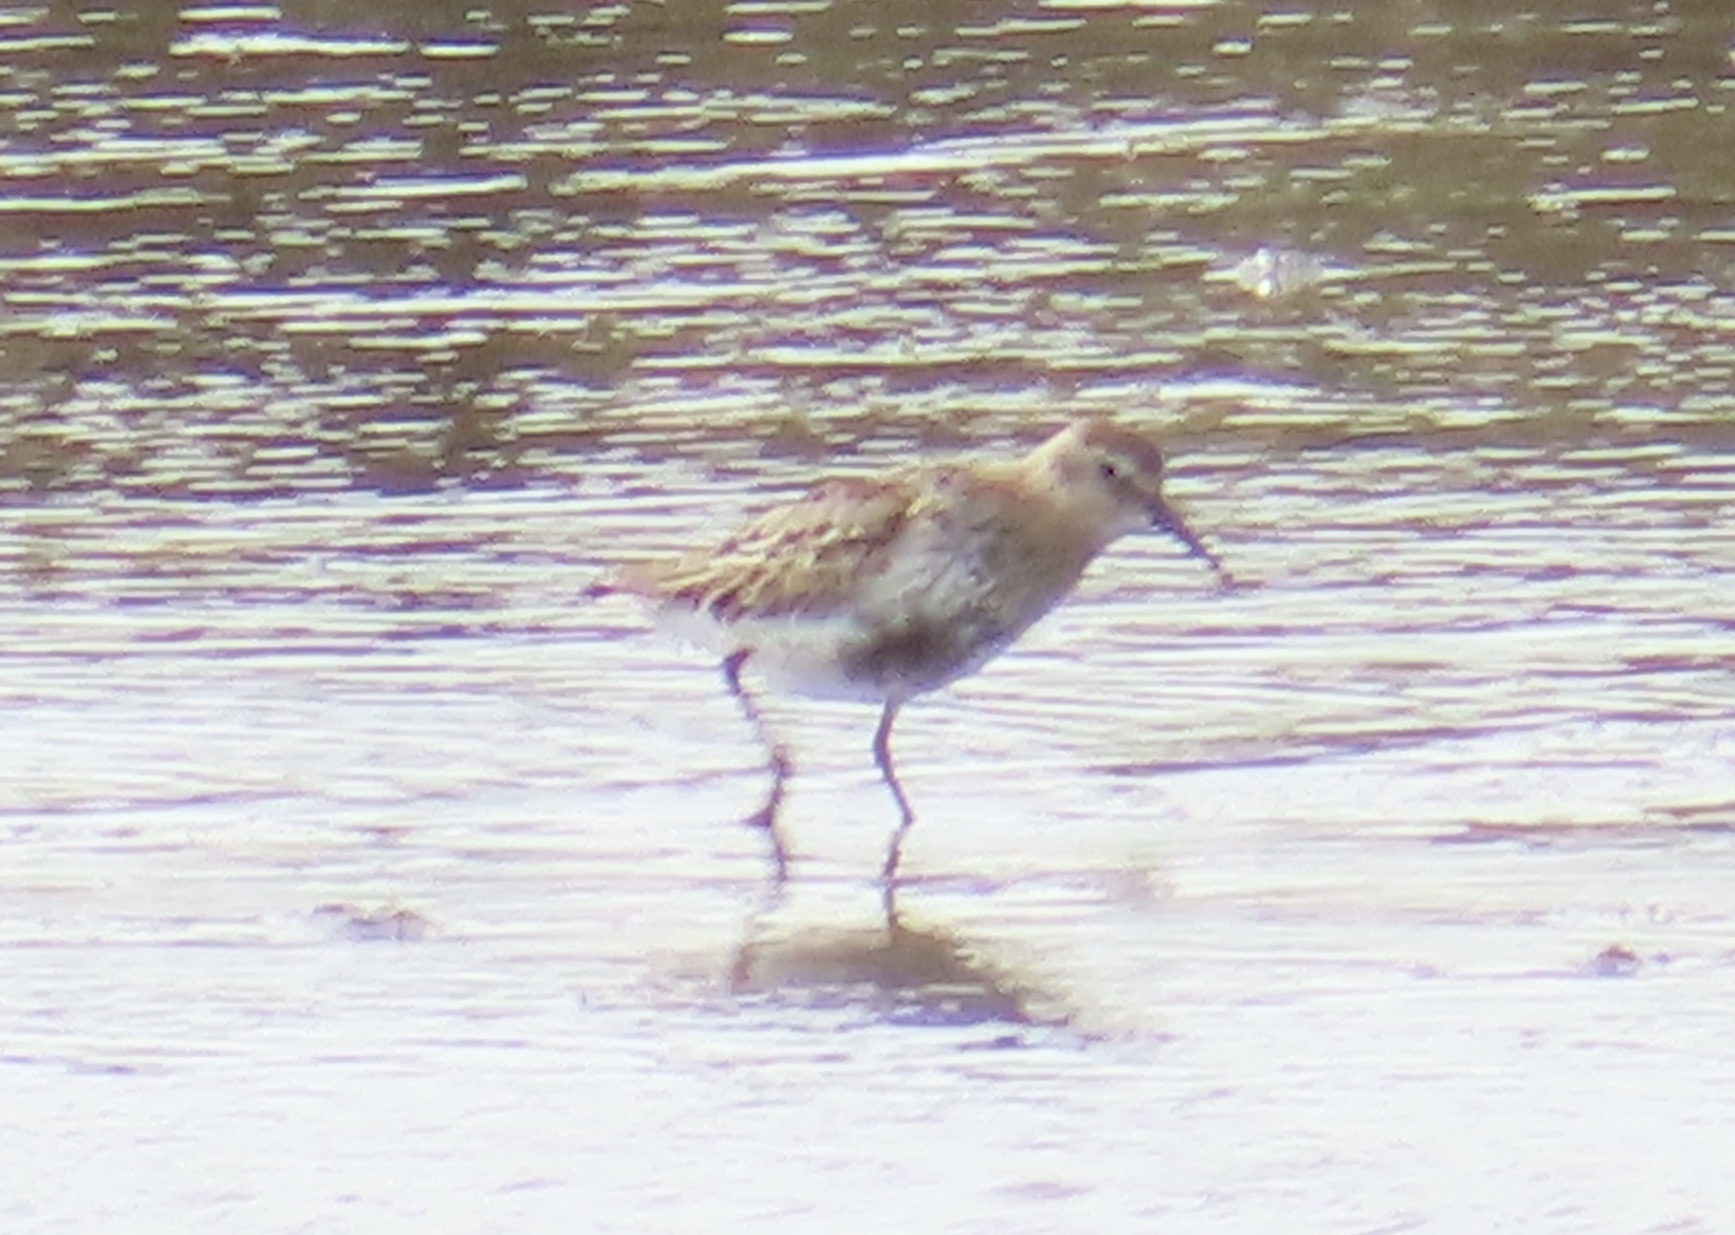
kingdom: Animalia
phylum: Chordata
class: Aves
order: Charadriiformes
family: Scolopacidae
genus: Calidris
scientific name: Calidris alpina
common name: Dunlin
